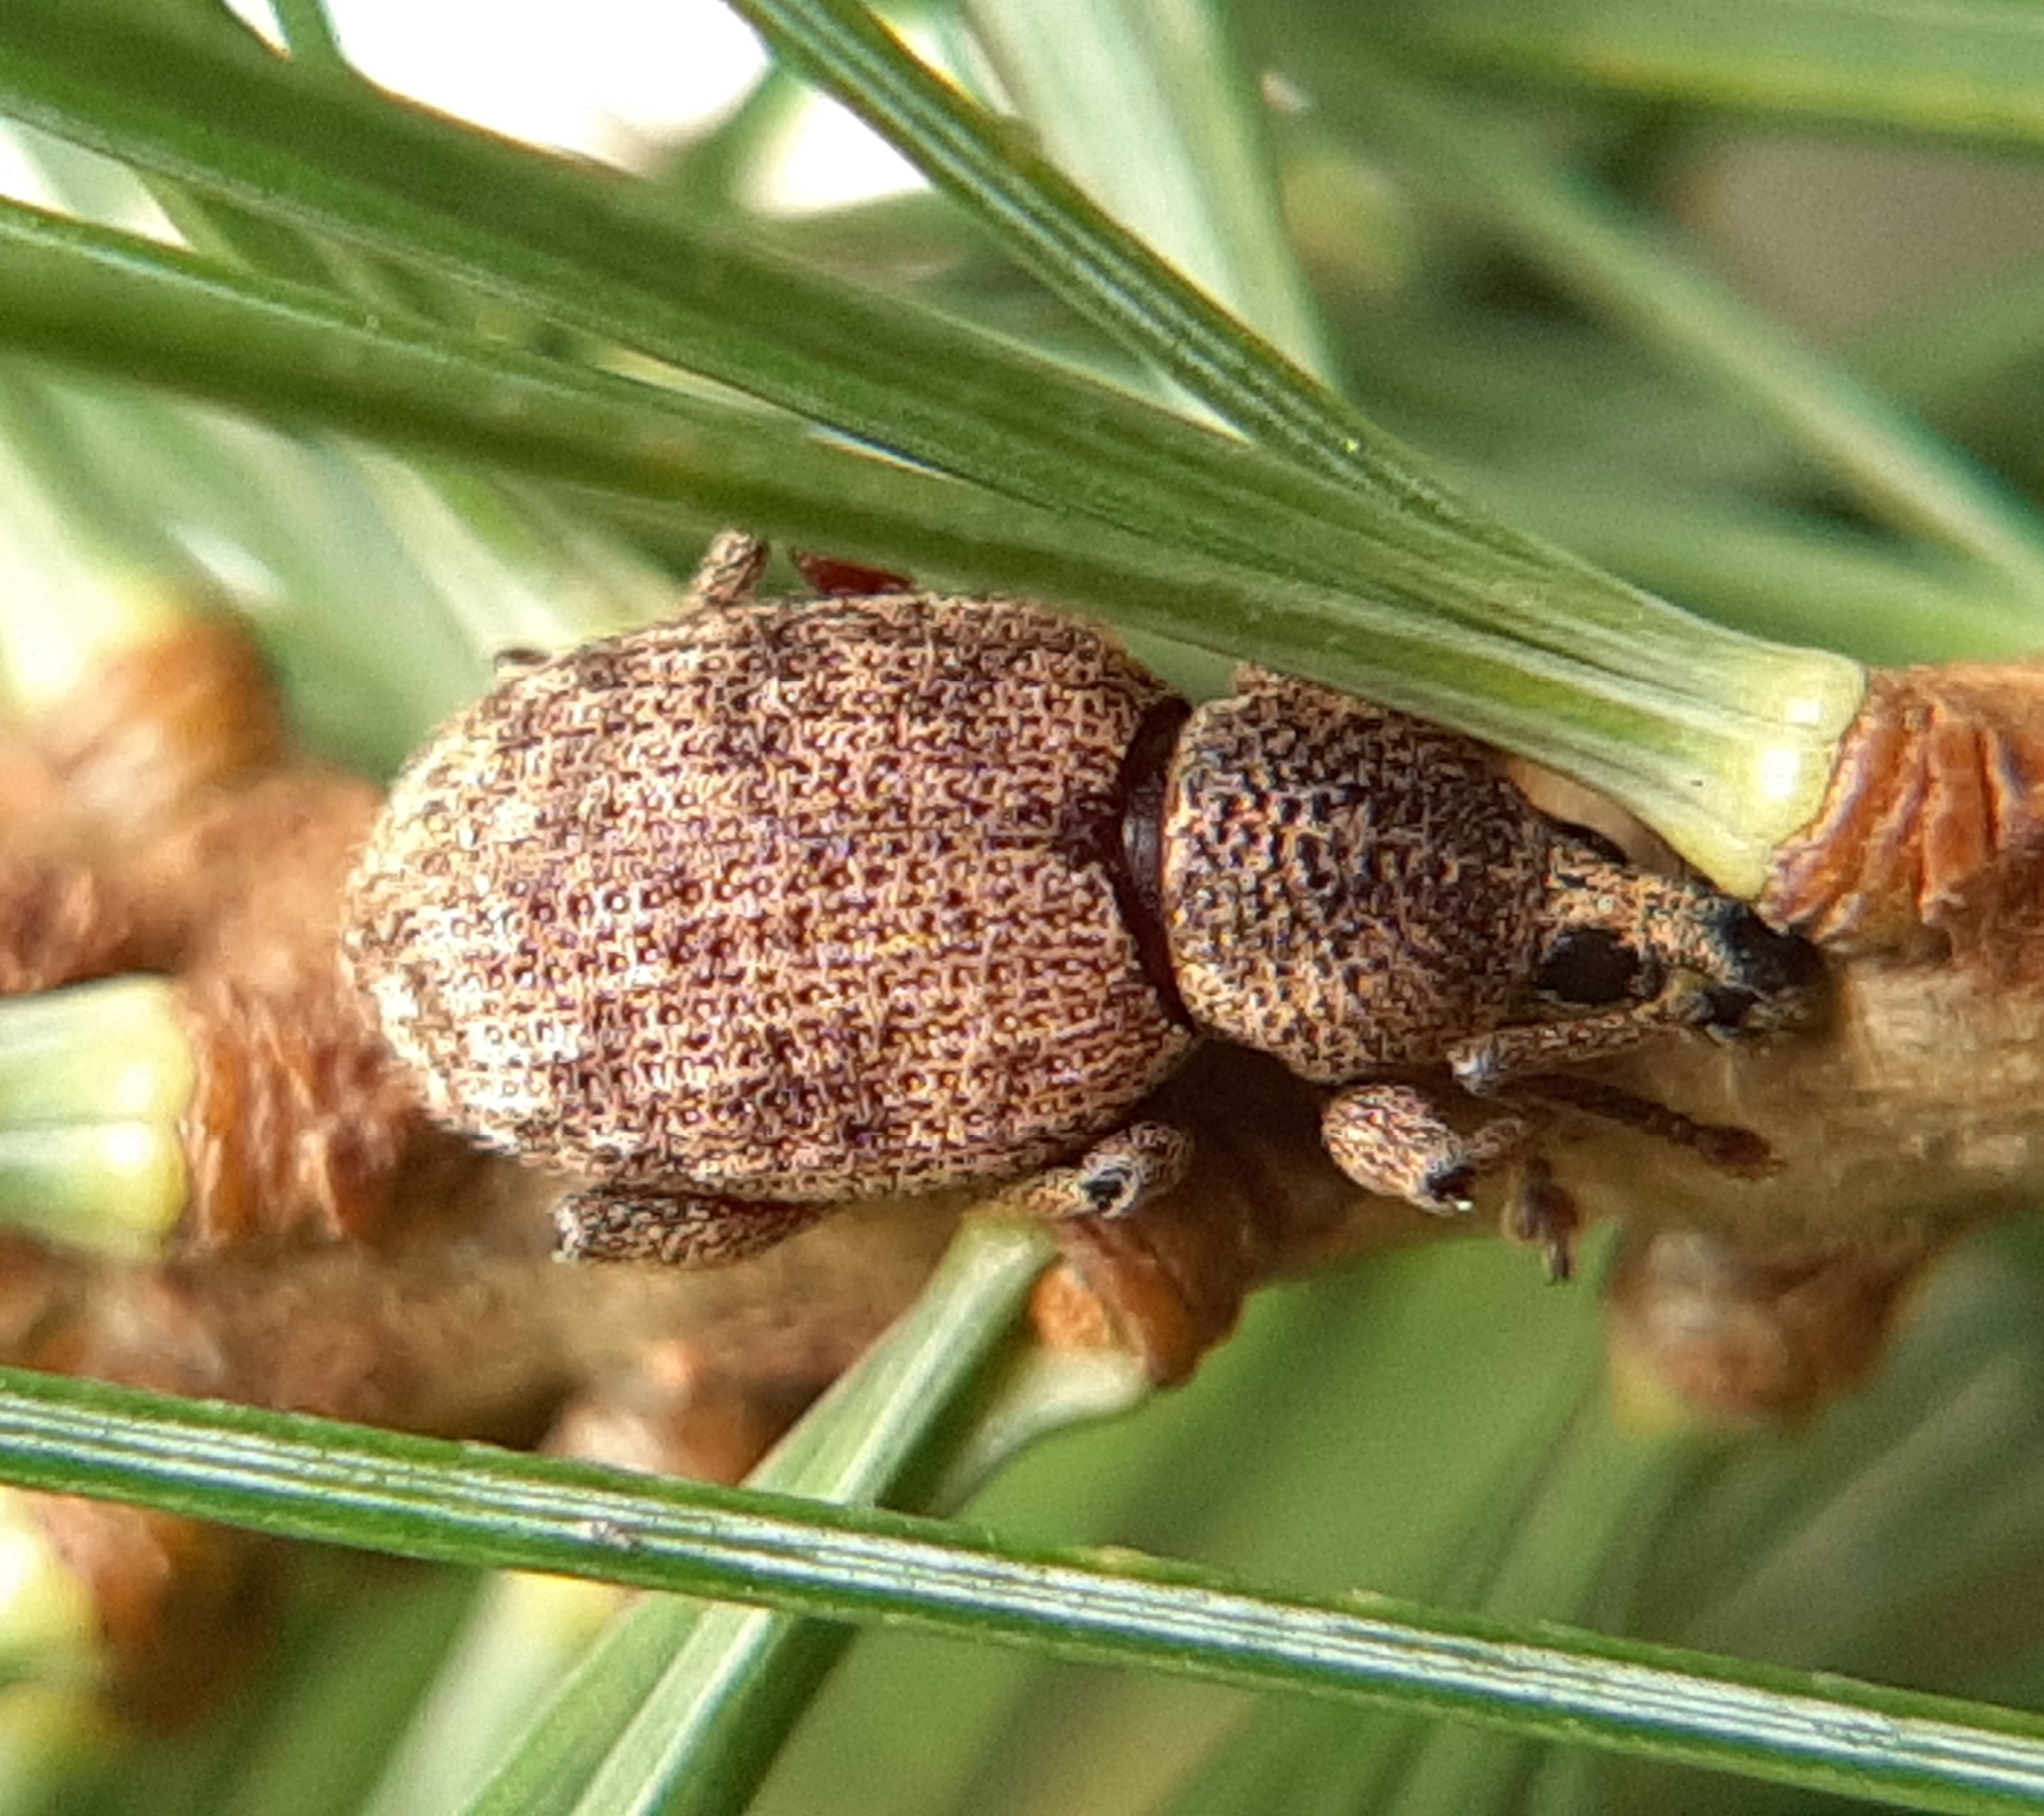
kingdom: Animalia
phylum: Arthropoda
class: Insecta
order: Coleoptera
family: Curculionidae
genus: Otiorhynchus
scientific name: Otiorhynchus singularis
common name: Clay-coloured weevil
